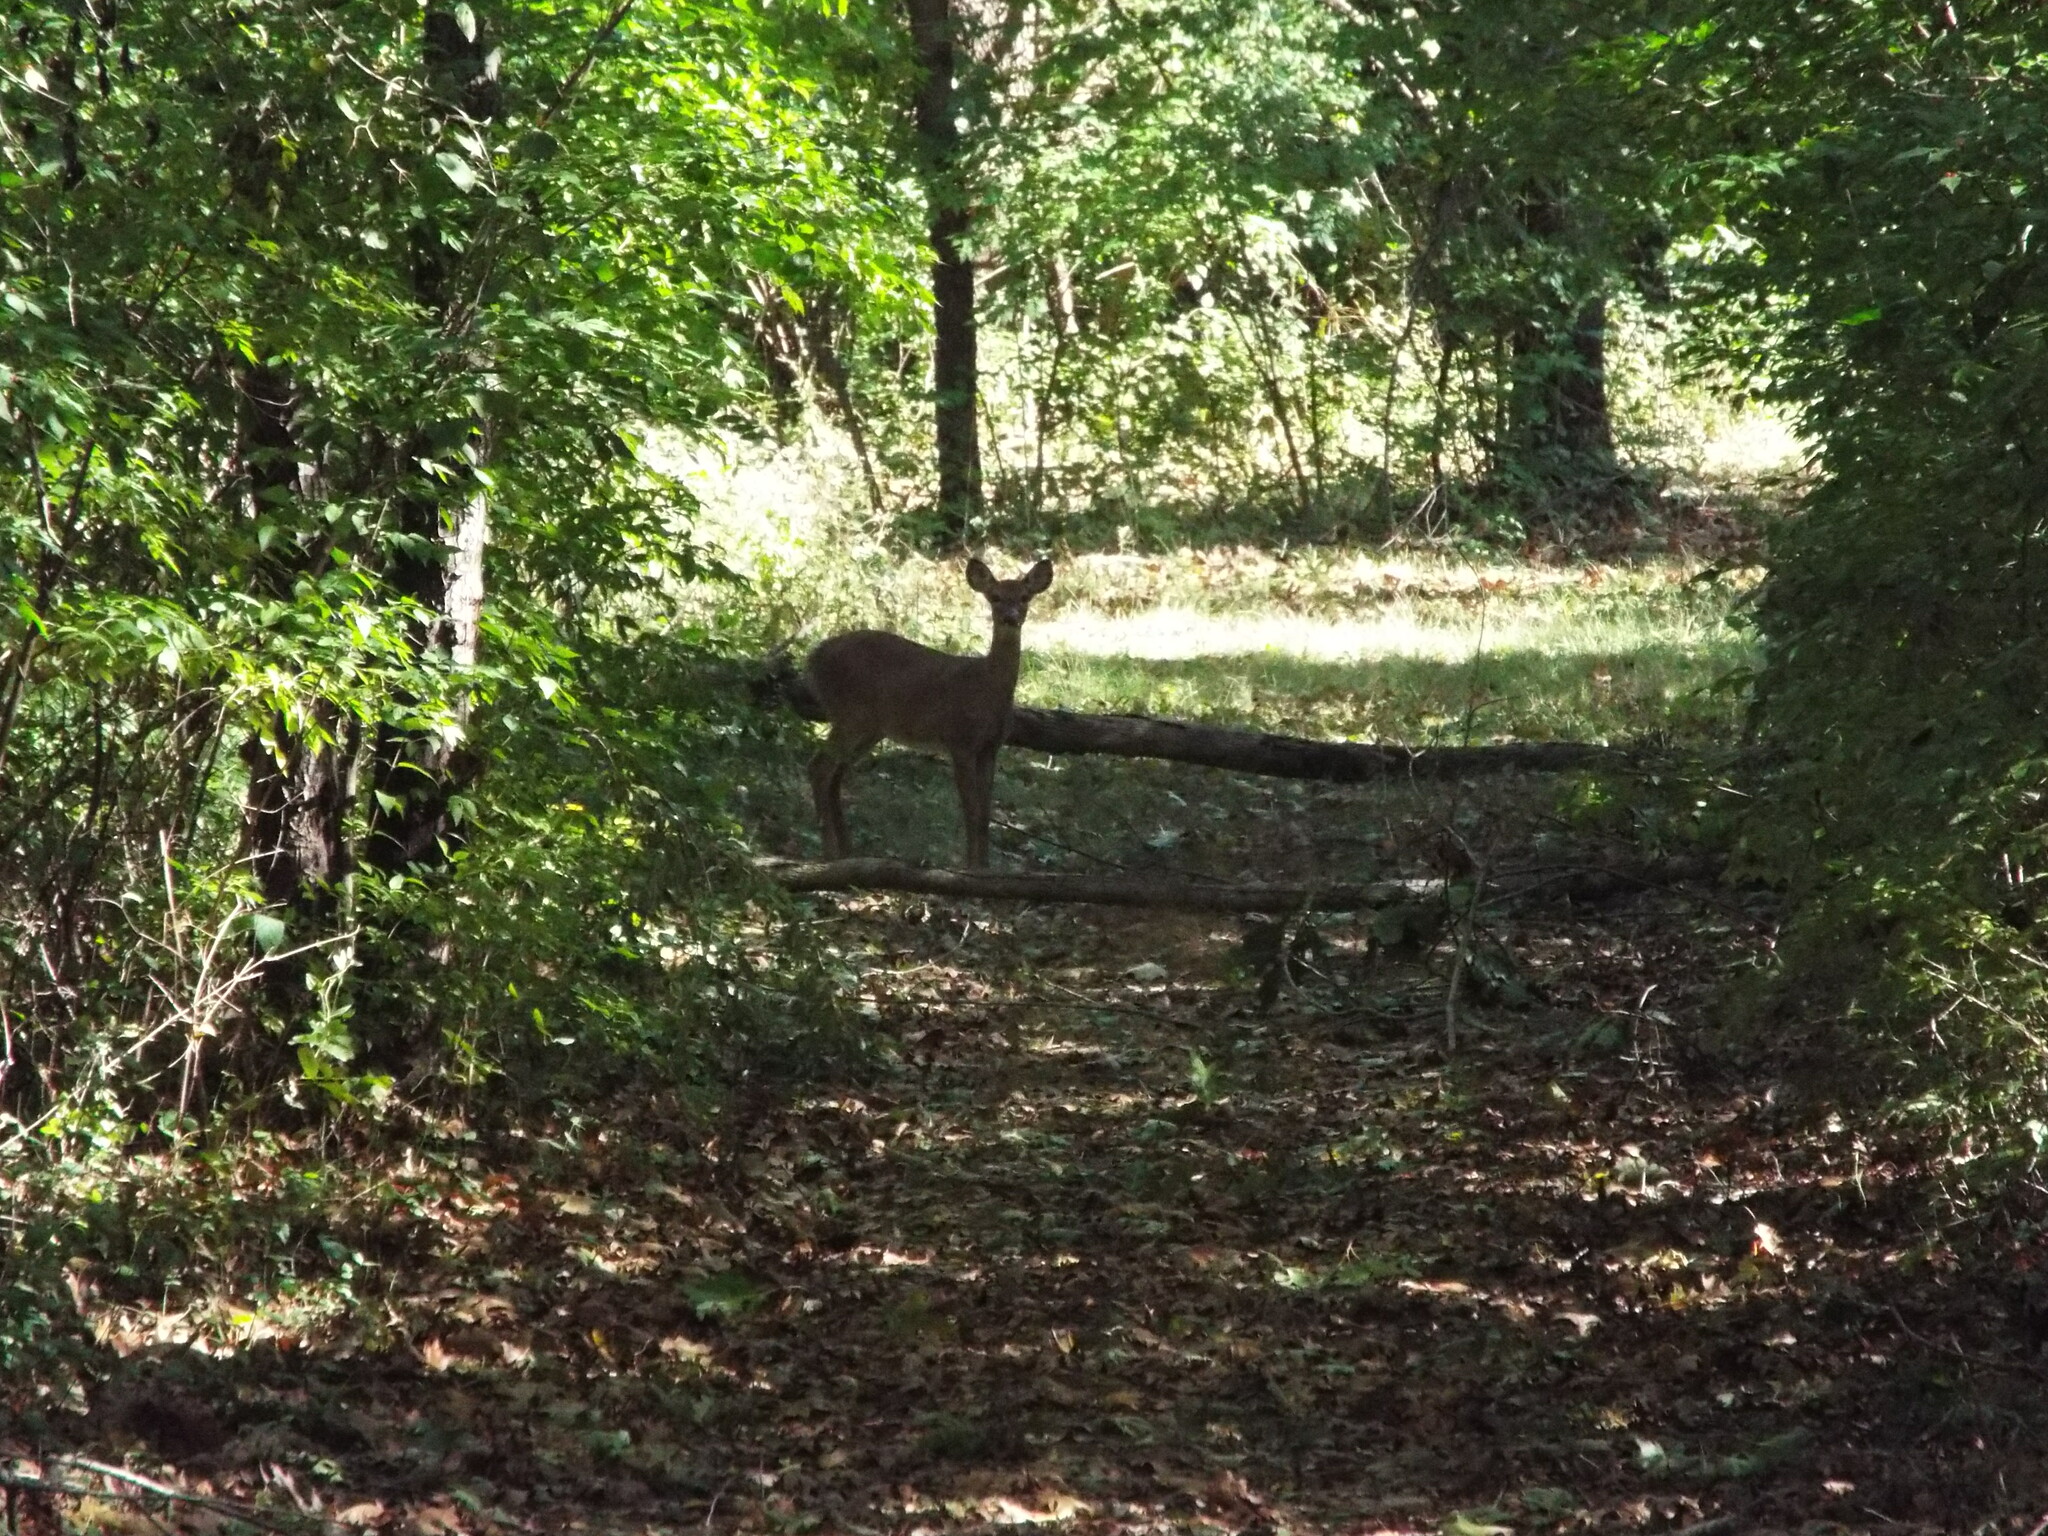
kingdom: Animalia
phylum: Chordata
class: Mammalia
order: Artiodactyla
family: Cervidae
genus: Odocoileus
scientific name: Odocoileus virginianus
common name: White-tailed deer
